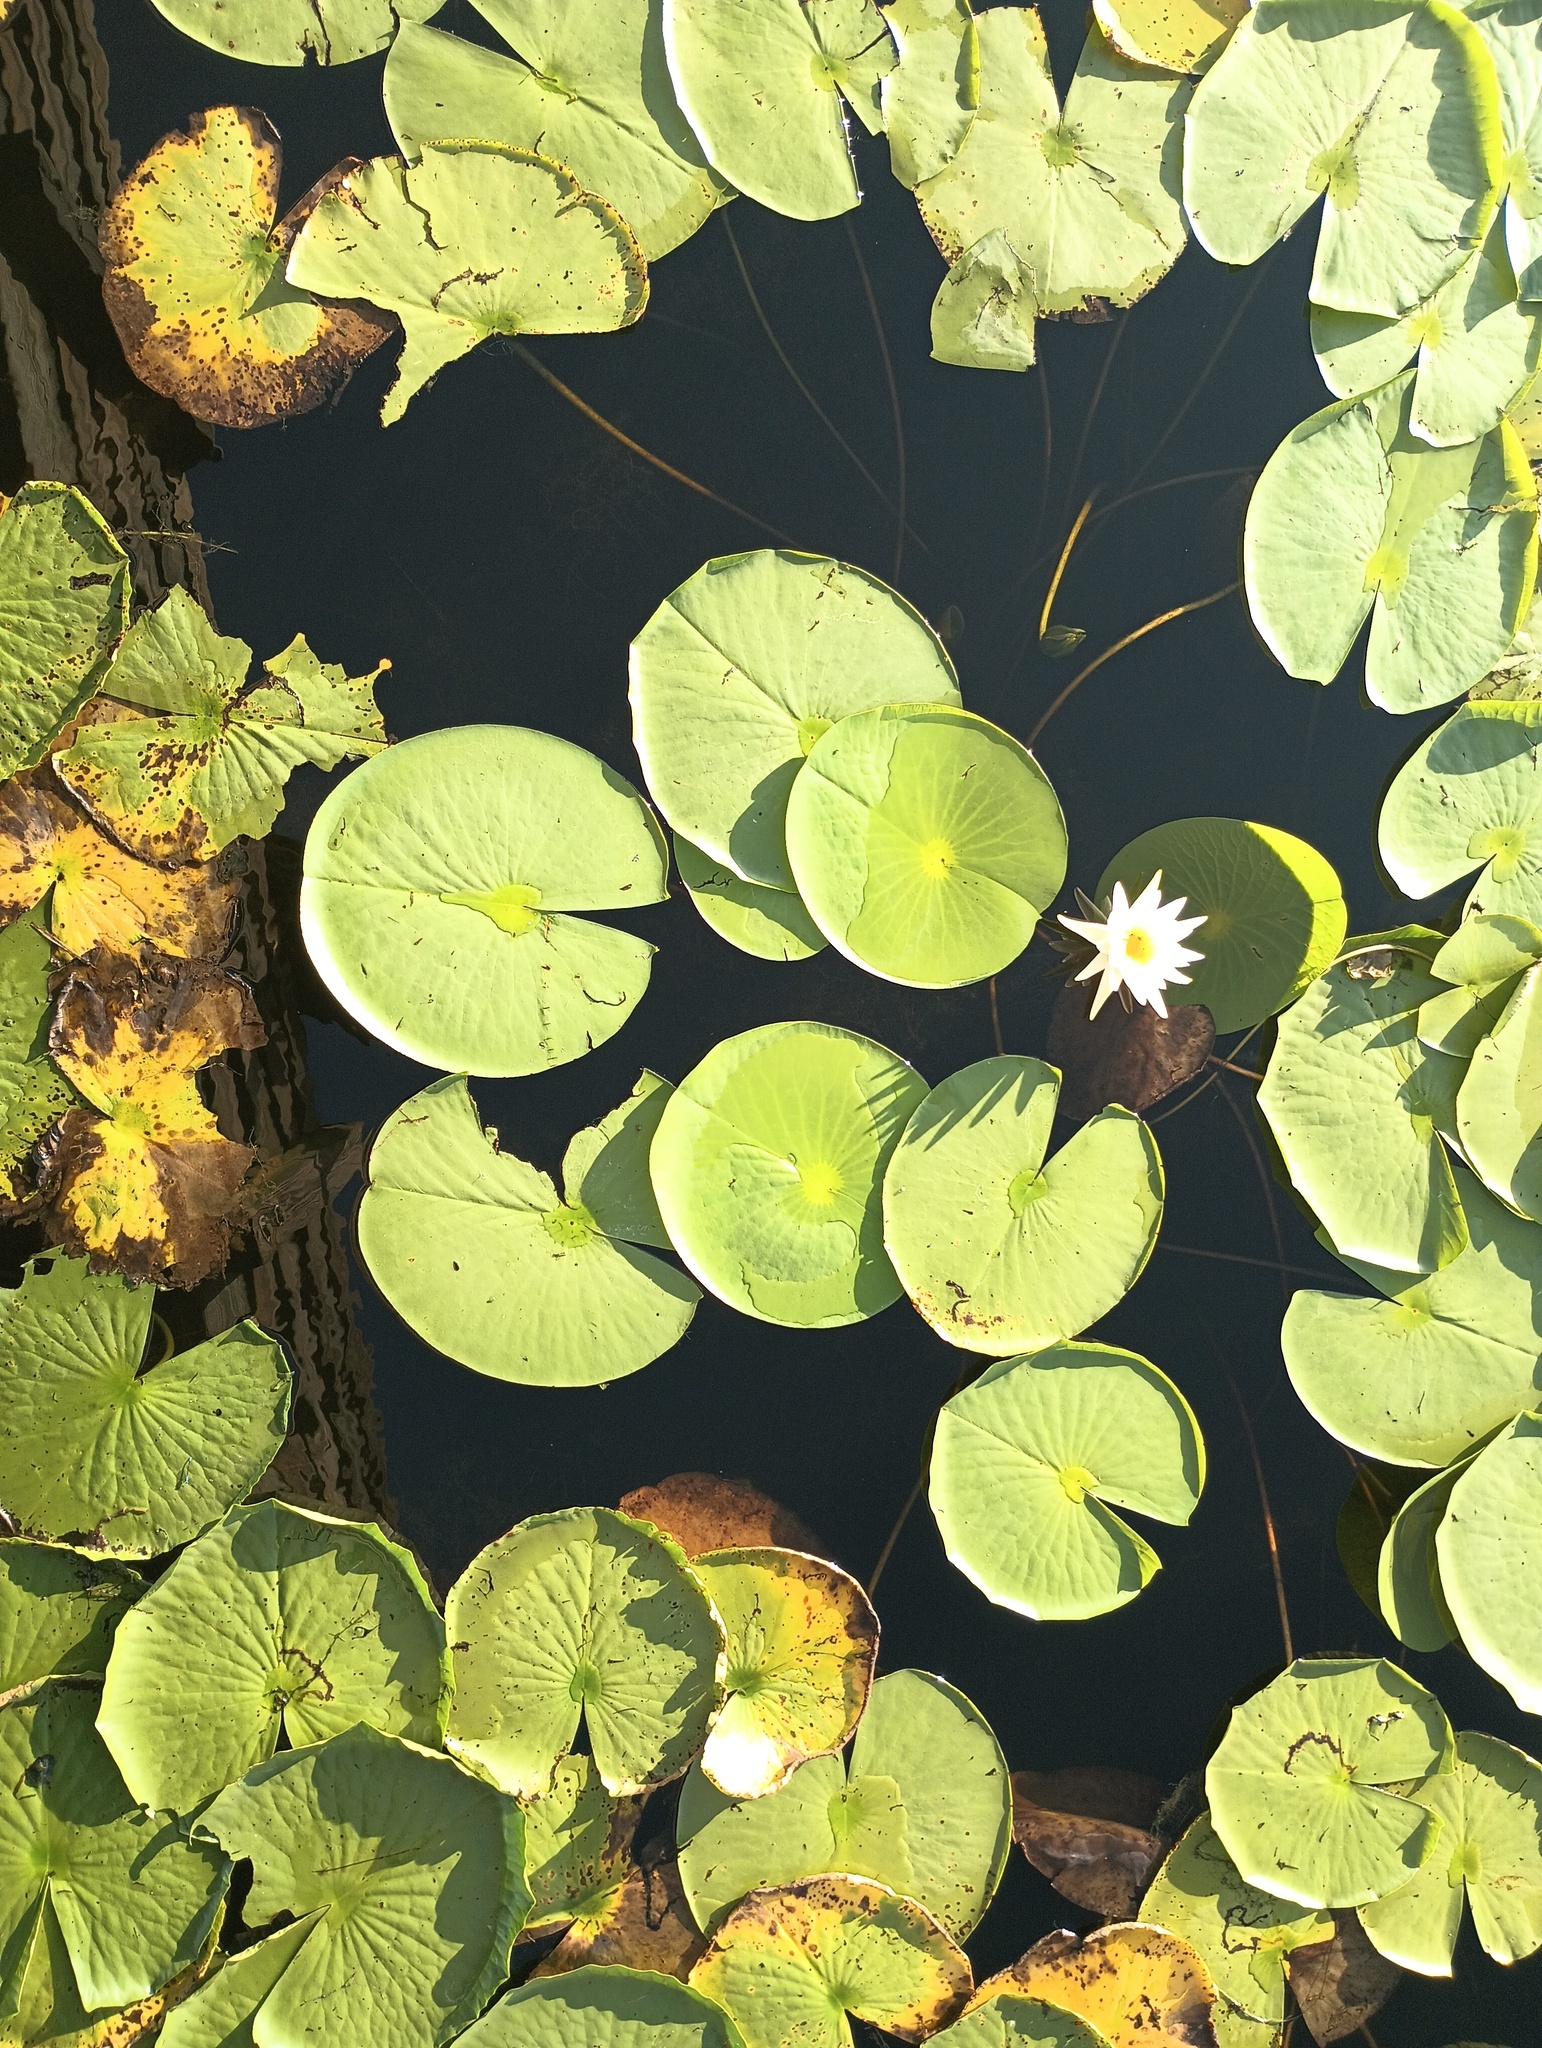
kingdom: Plantae
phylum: Tracheophyta
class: Magnoliopsida
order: Nymphaeales
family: Nymphaeaceae
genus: Nymphaea
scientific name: Nymphaea odorata
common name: Fragrant water-lily
